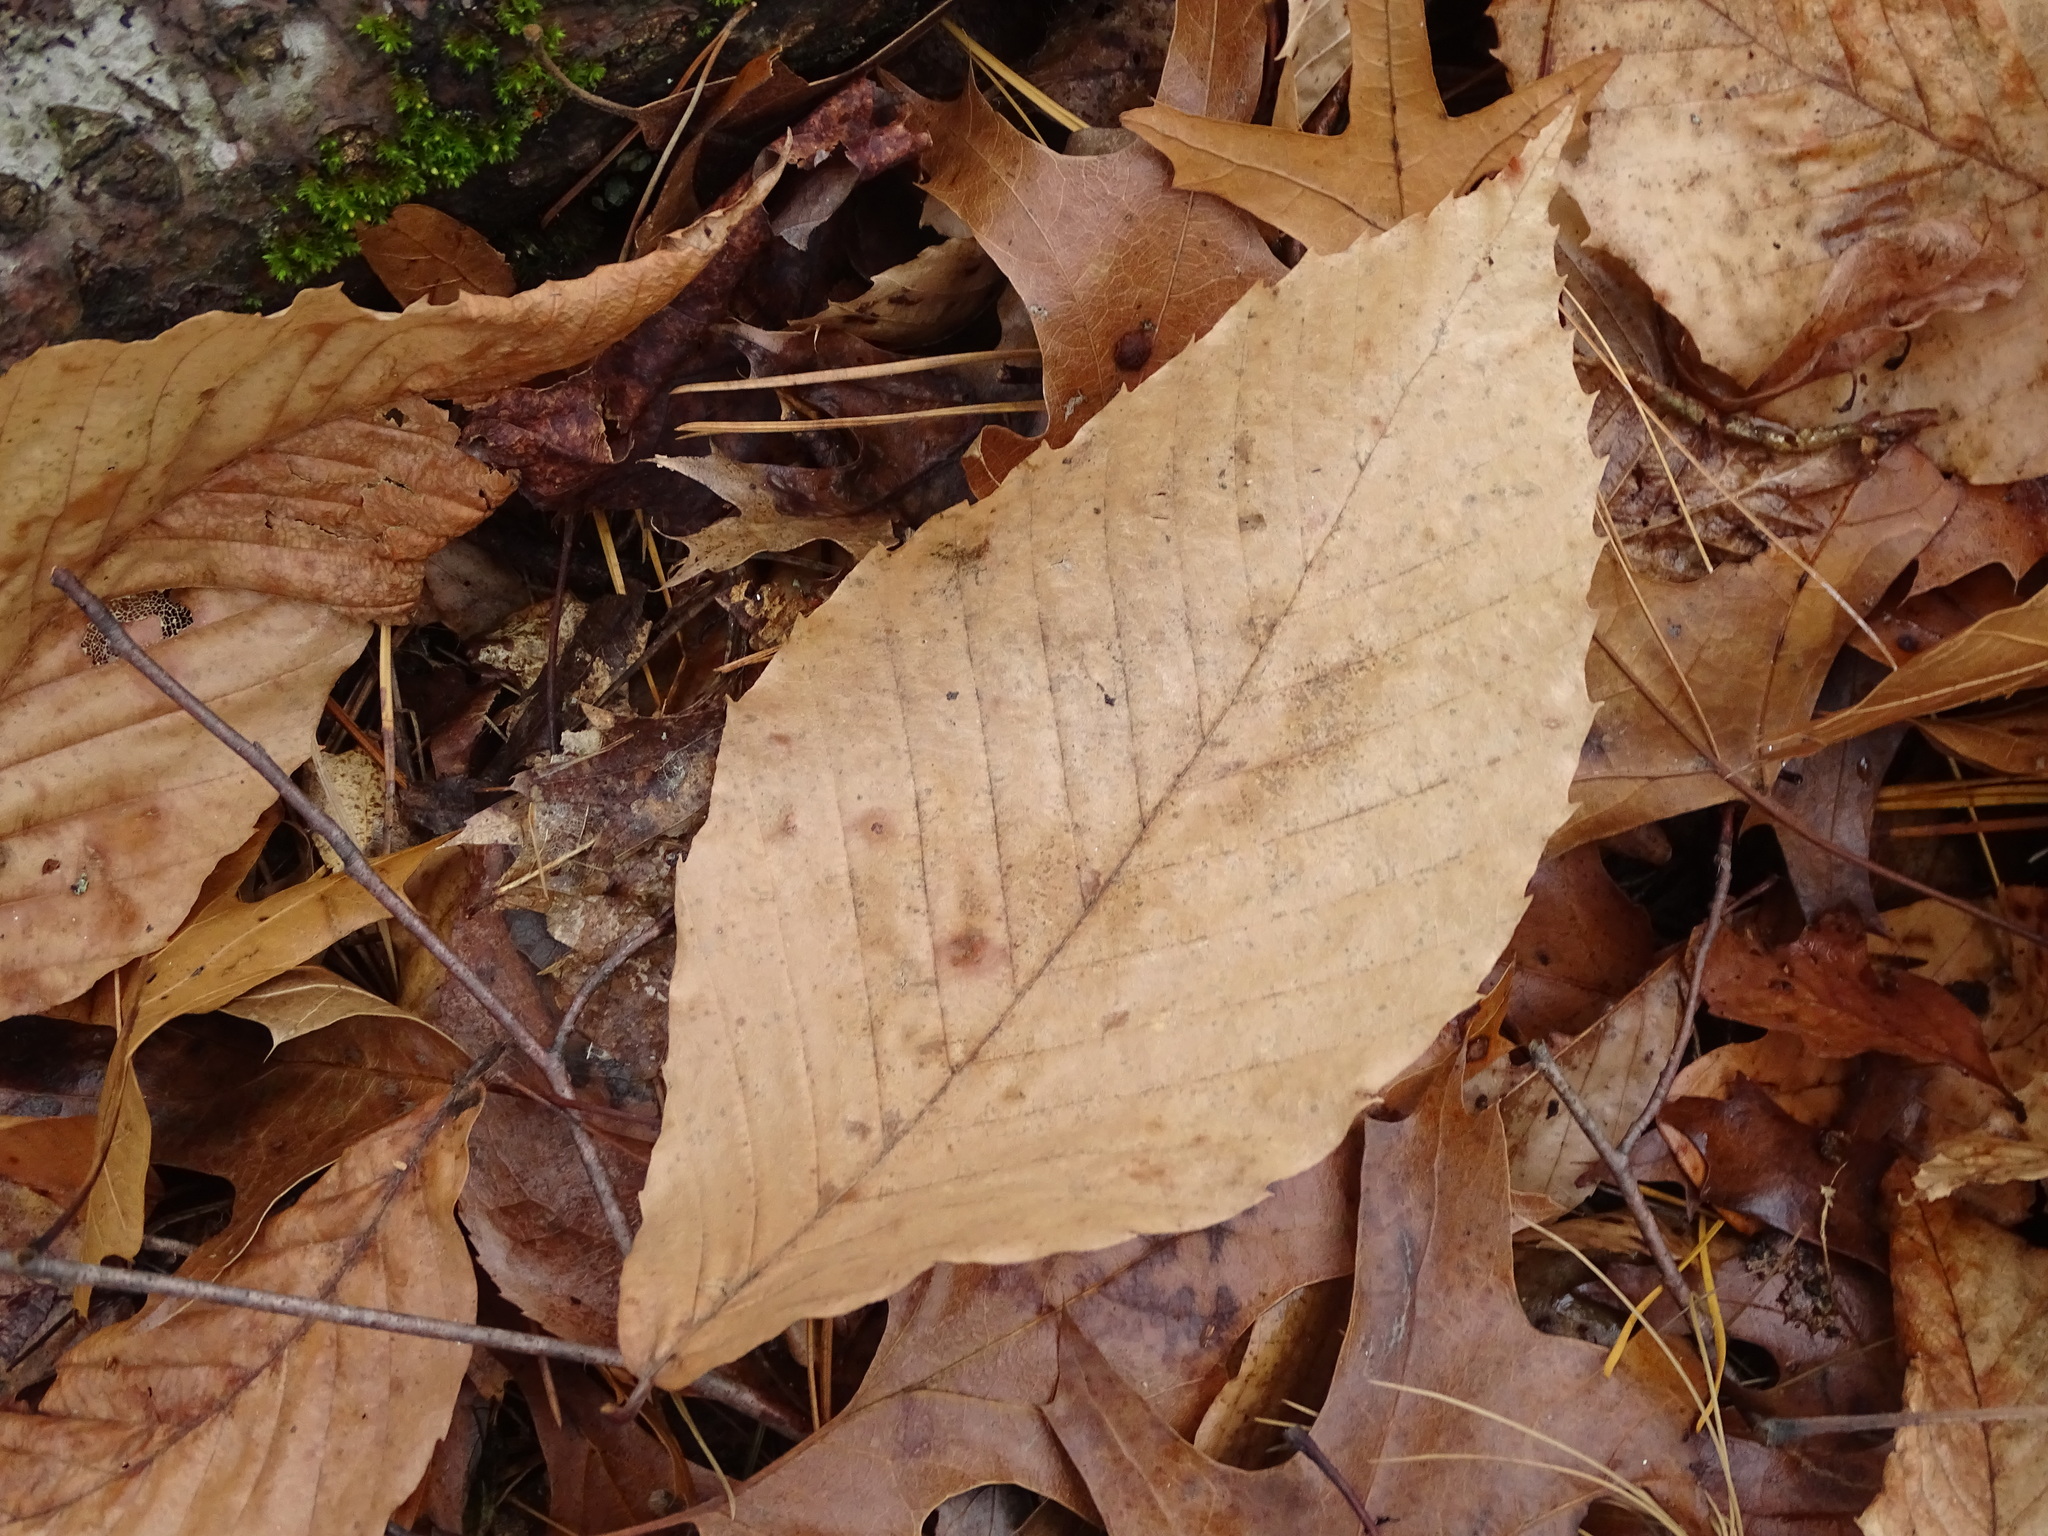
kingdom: Plantae
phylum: Tracheophyta
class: Magnoliopsida
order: Fagales
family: Fagaceae
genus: Fagus
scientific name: Fagus grandifolia
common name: American beech
